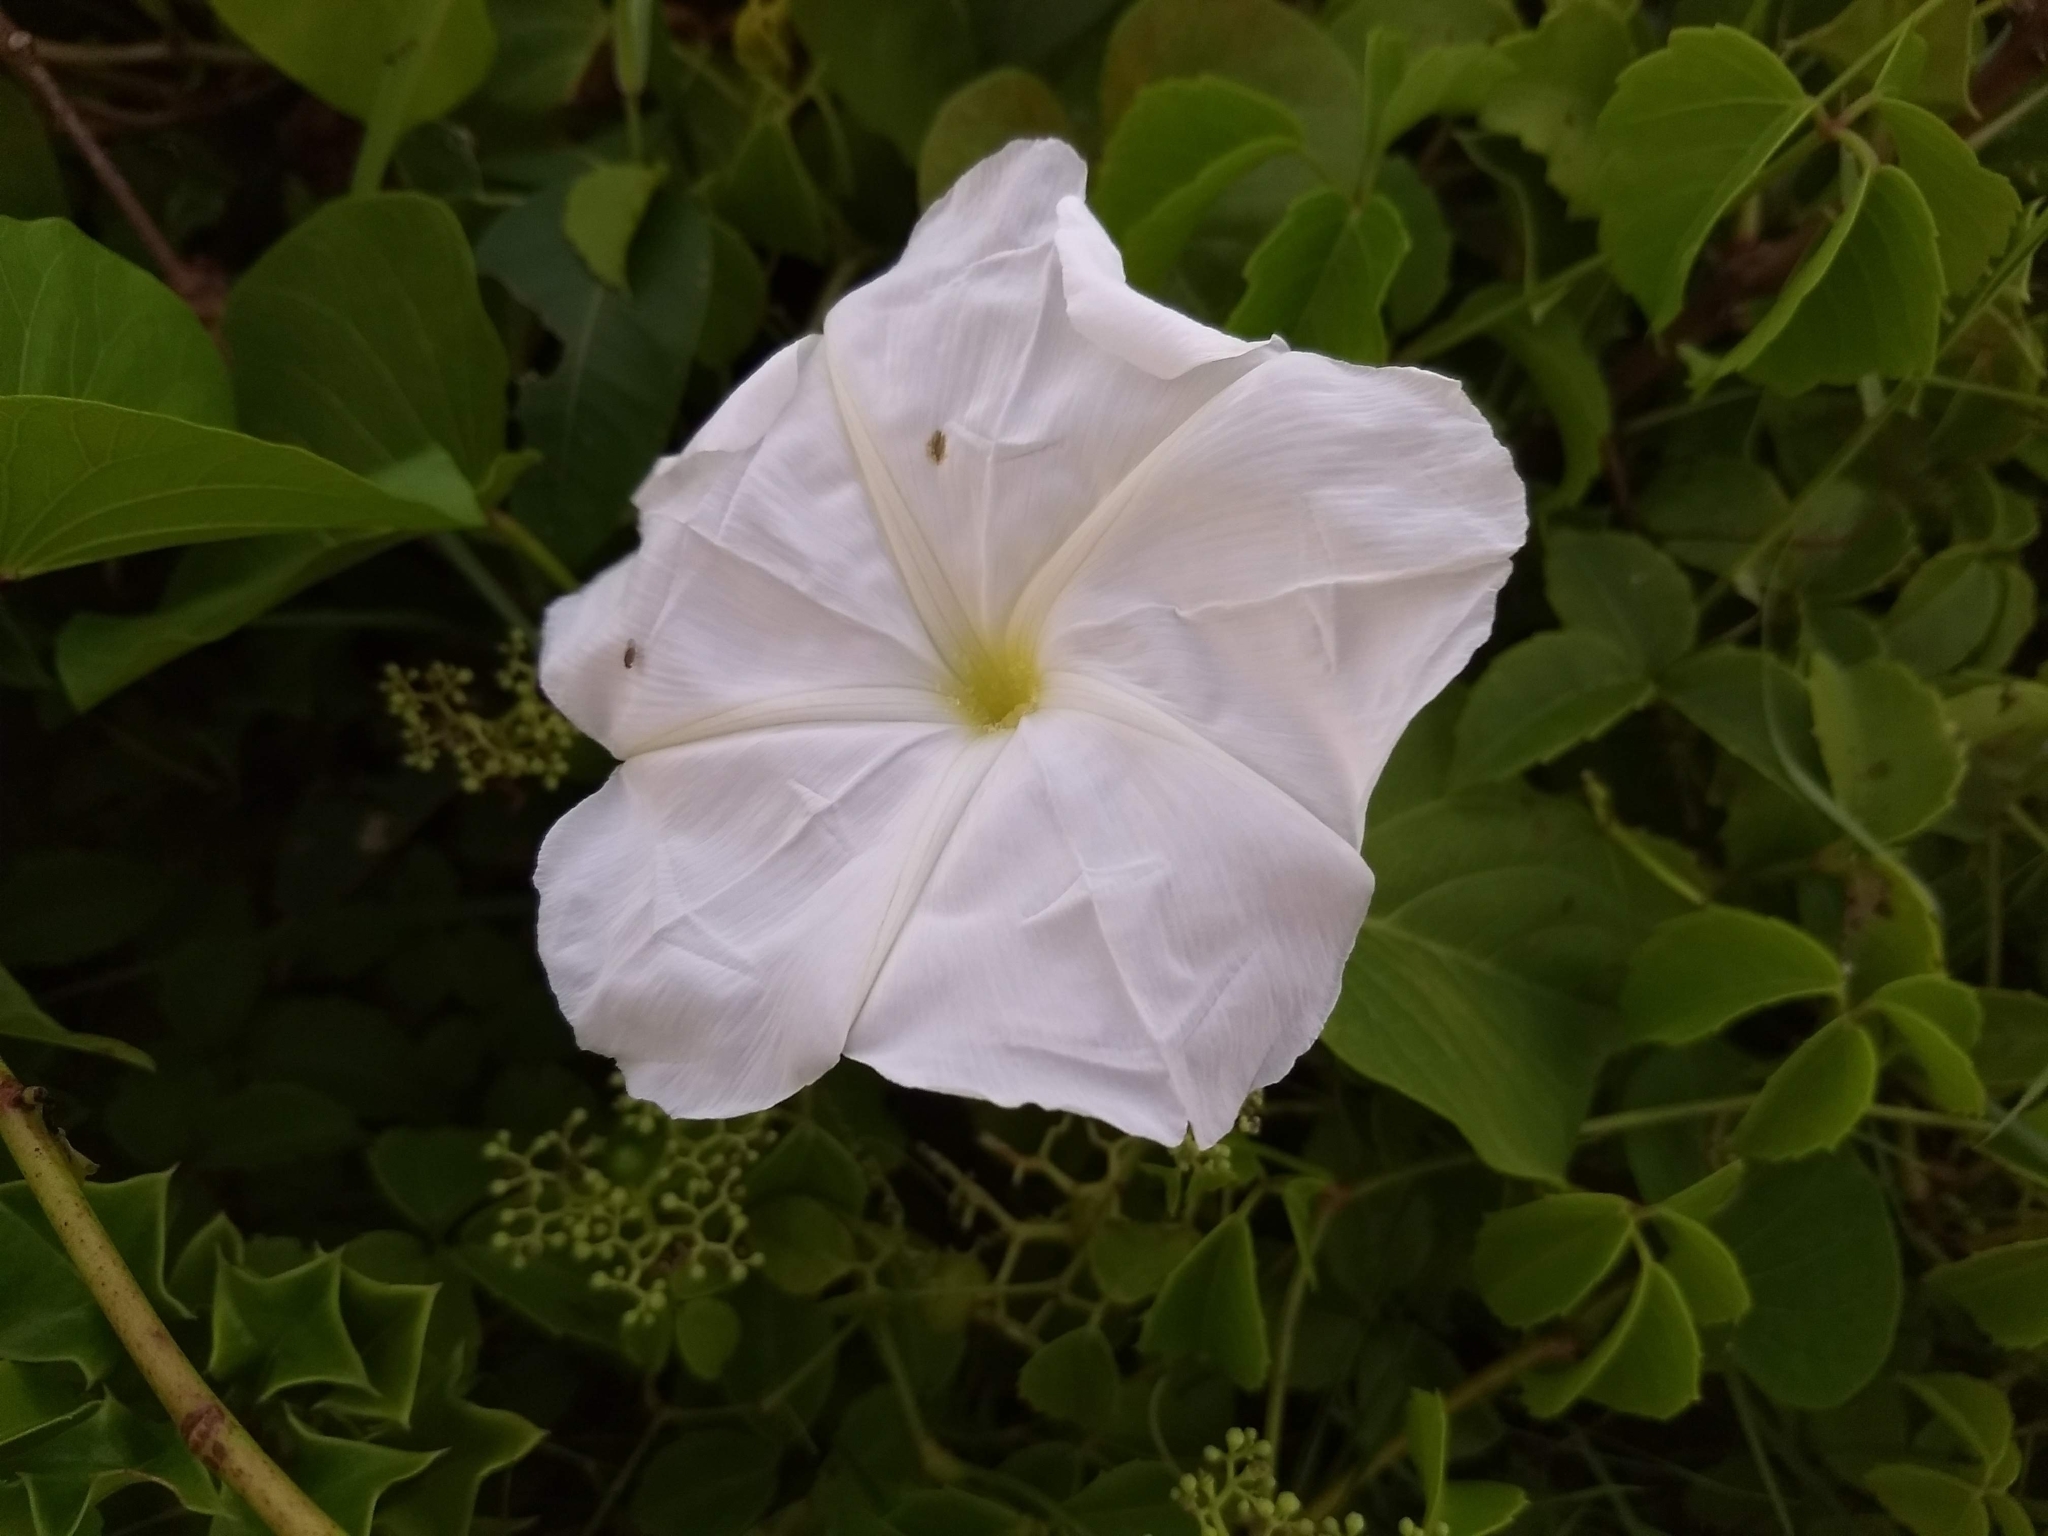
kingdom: Plantae
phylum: Tracheophyta
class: Magnoliopsida
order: Solanales
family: Convolvulaceae
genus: Ipomoea
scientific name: Ipomoea alba
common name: Moonflower
